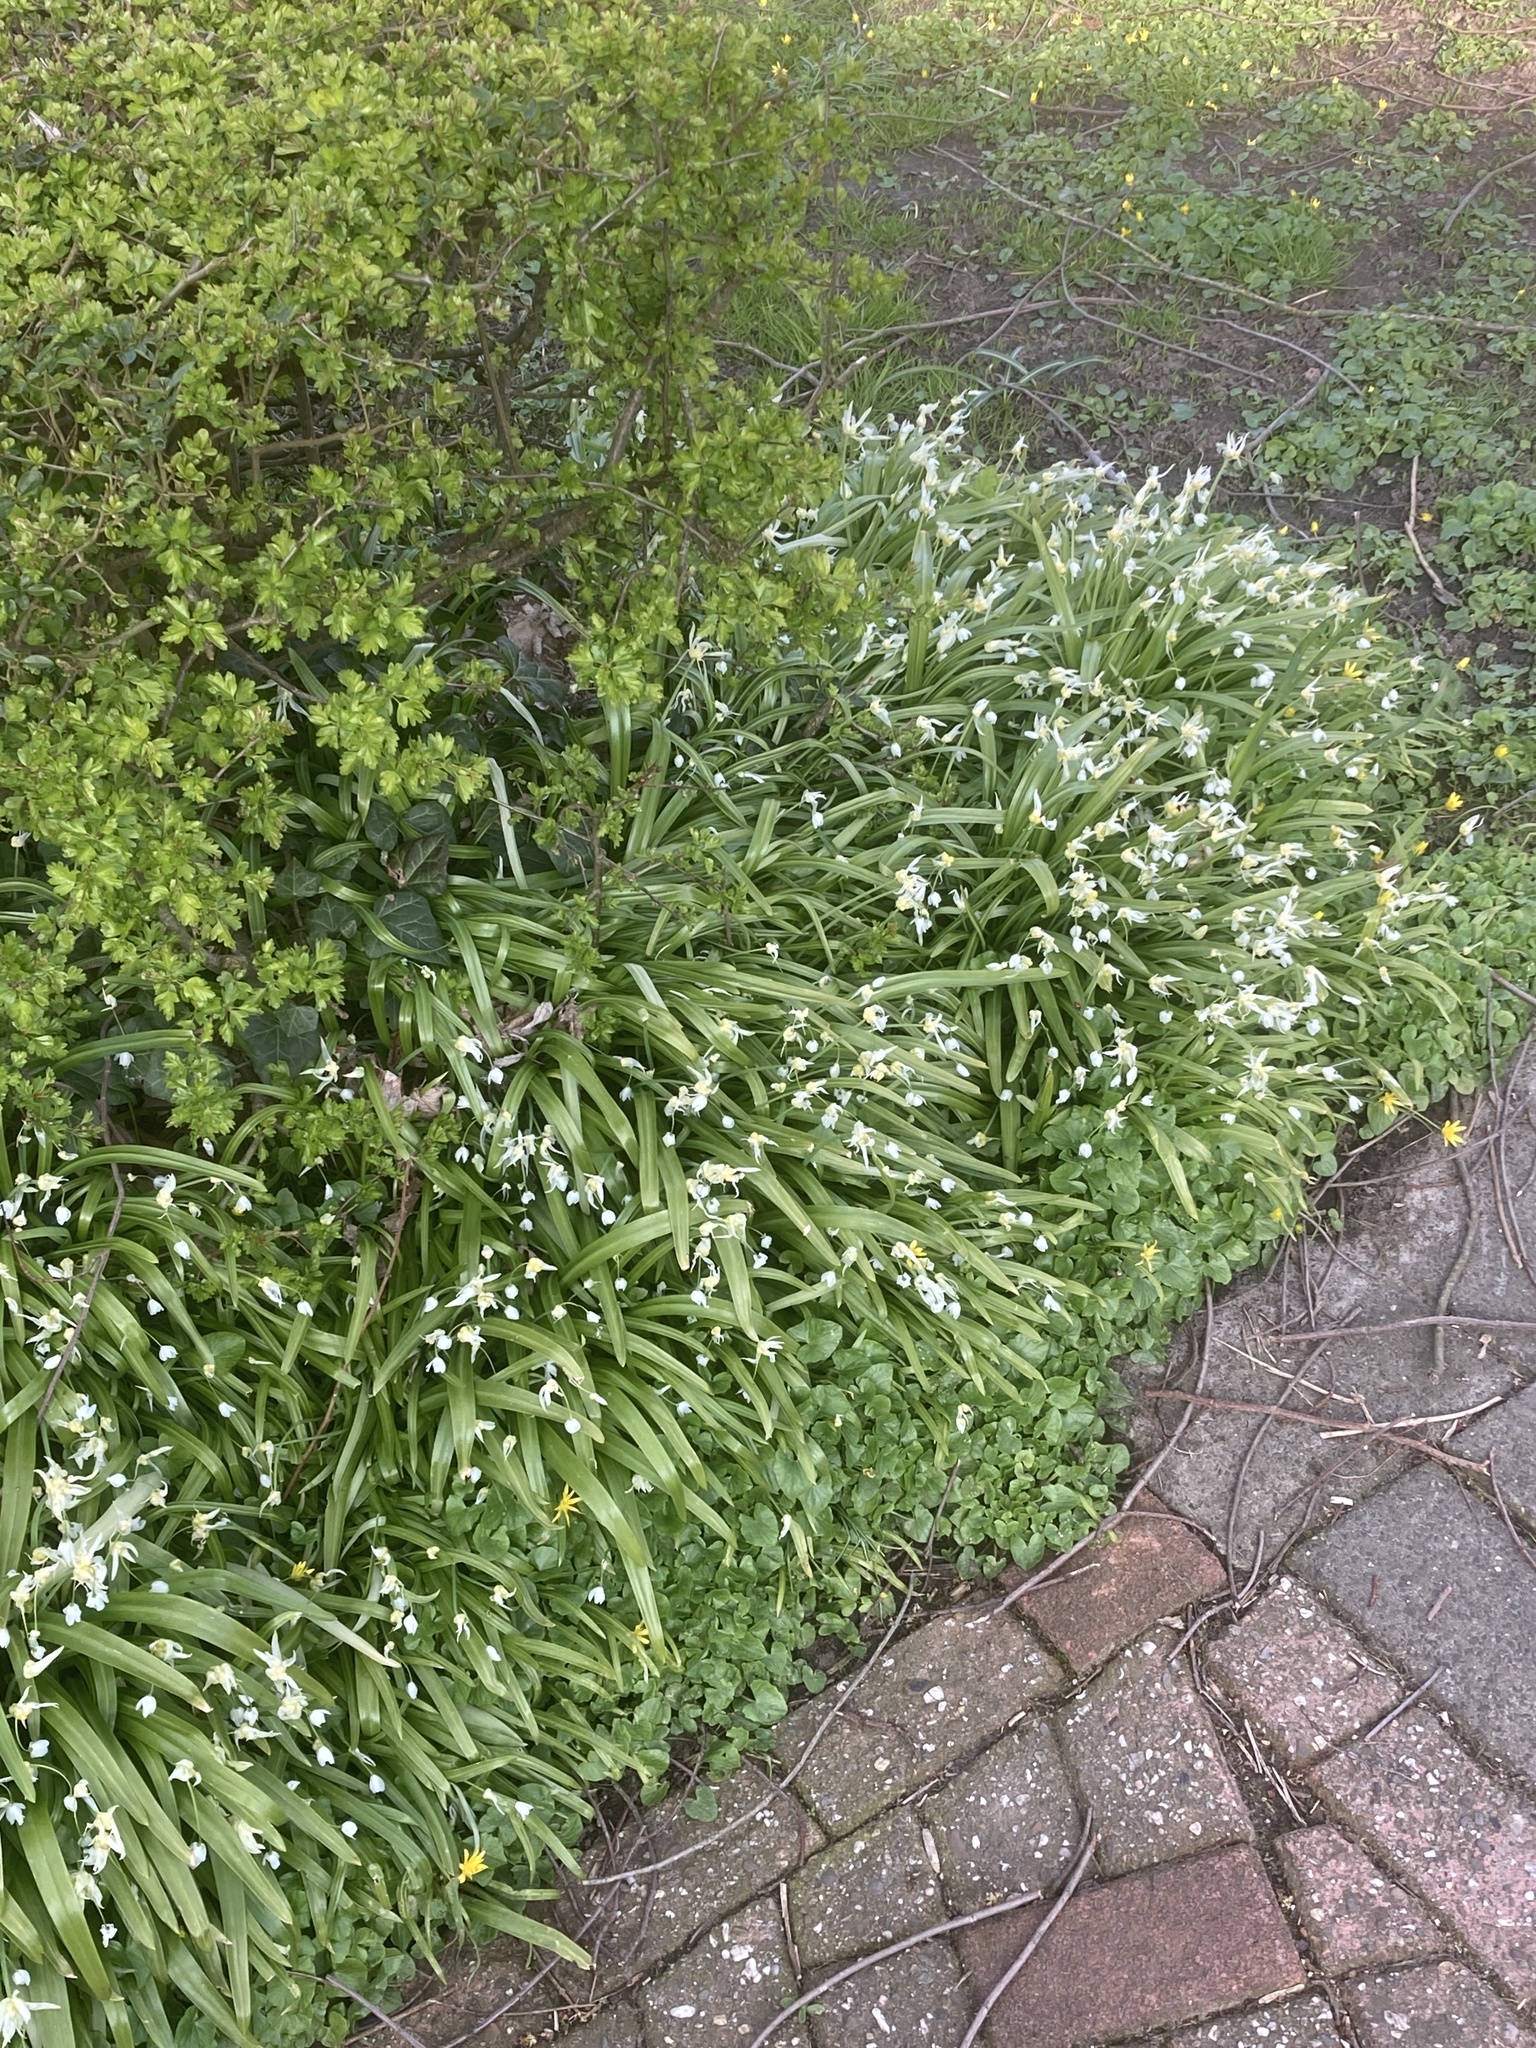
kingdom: Plantae
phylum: Tracheophyta
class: Magnoliopsida
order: Ranunculales
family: Ranunculaceae
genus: Ficaria
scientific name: Ficaria verna
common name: Lesser celandine
